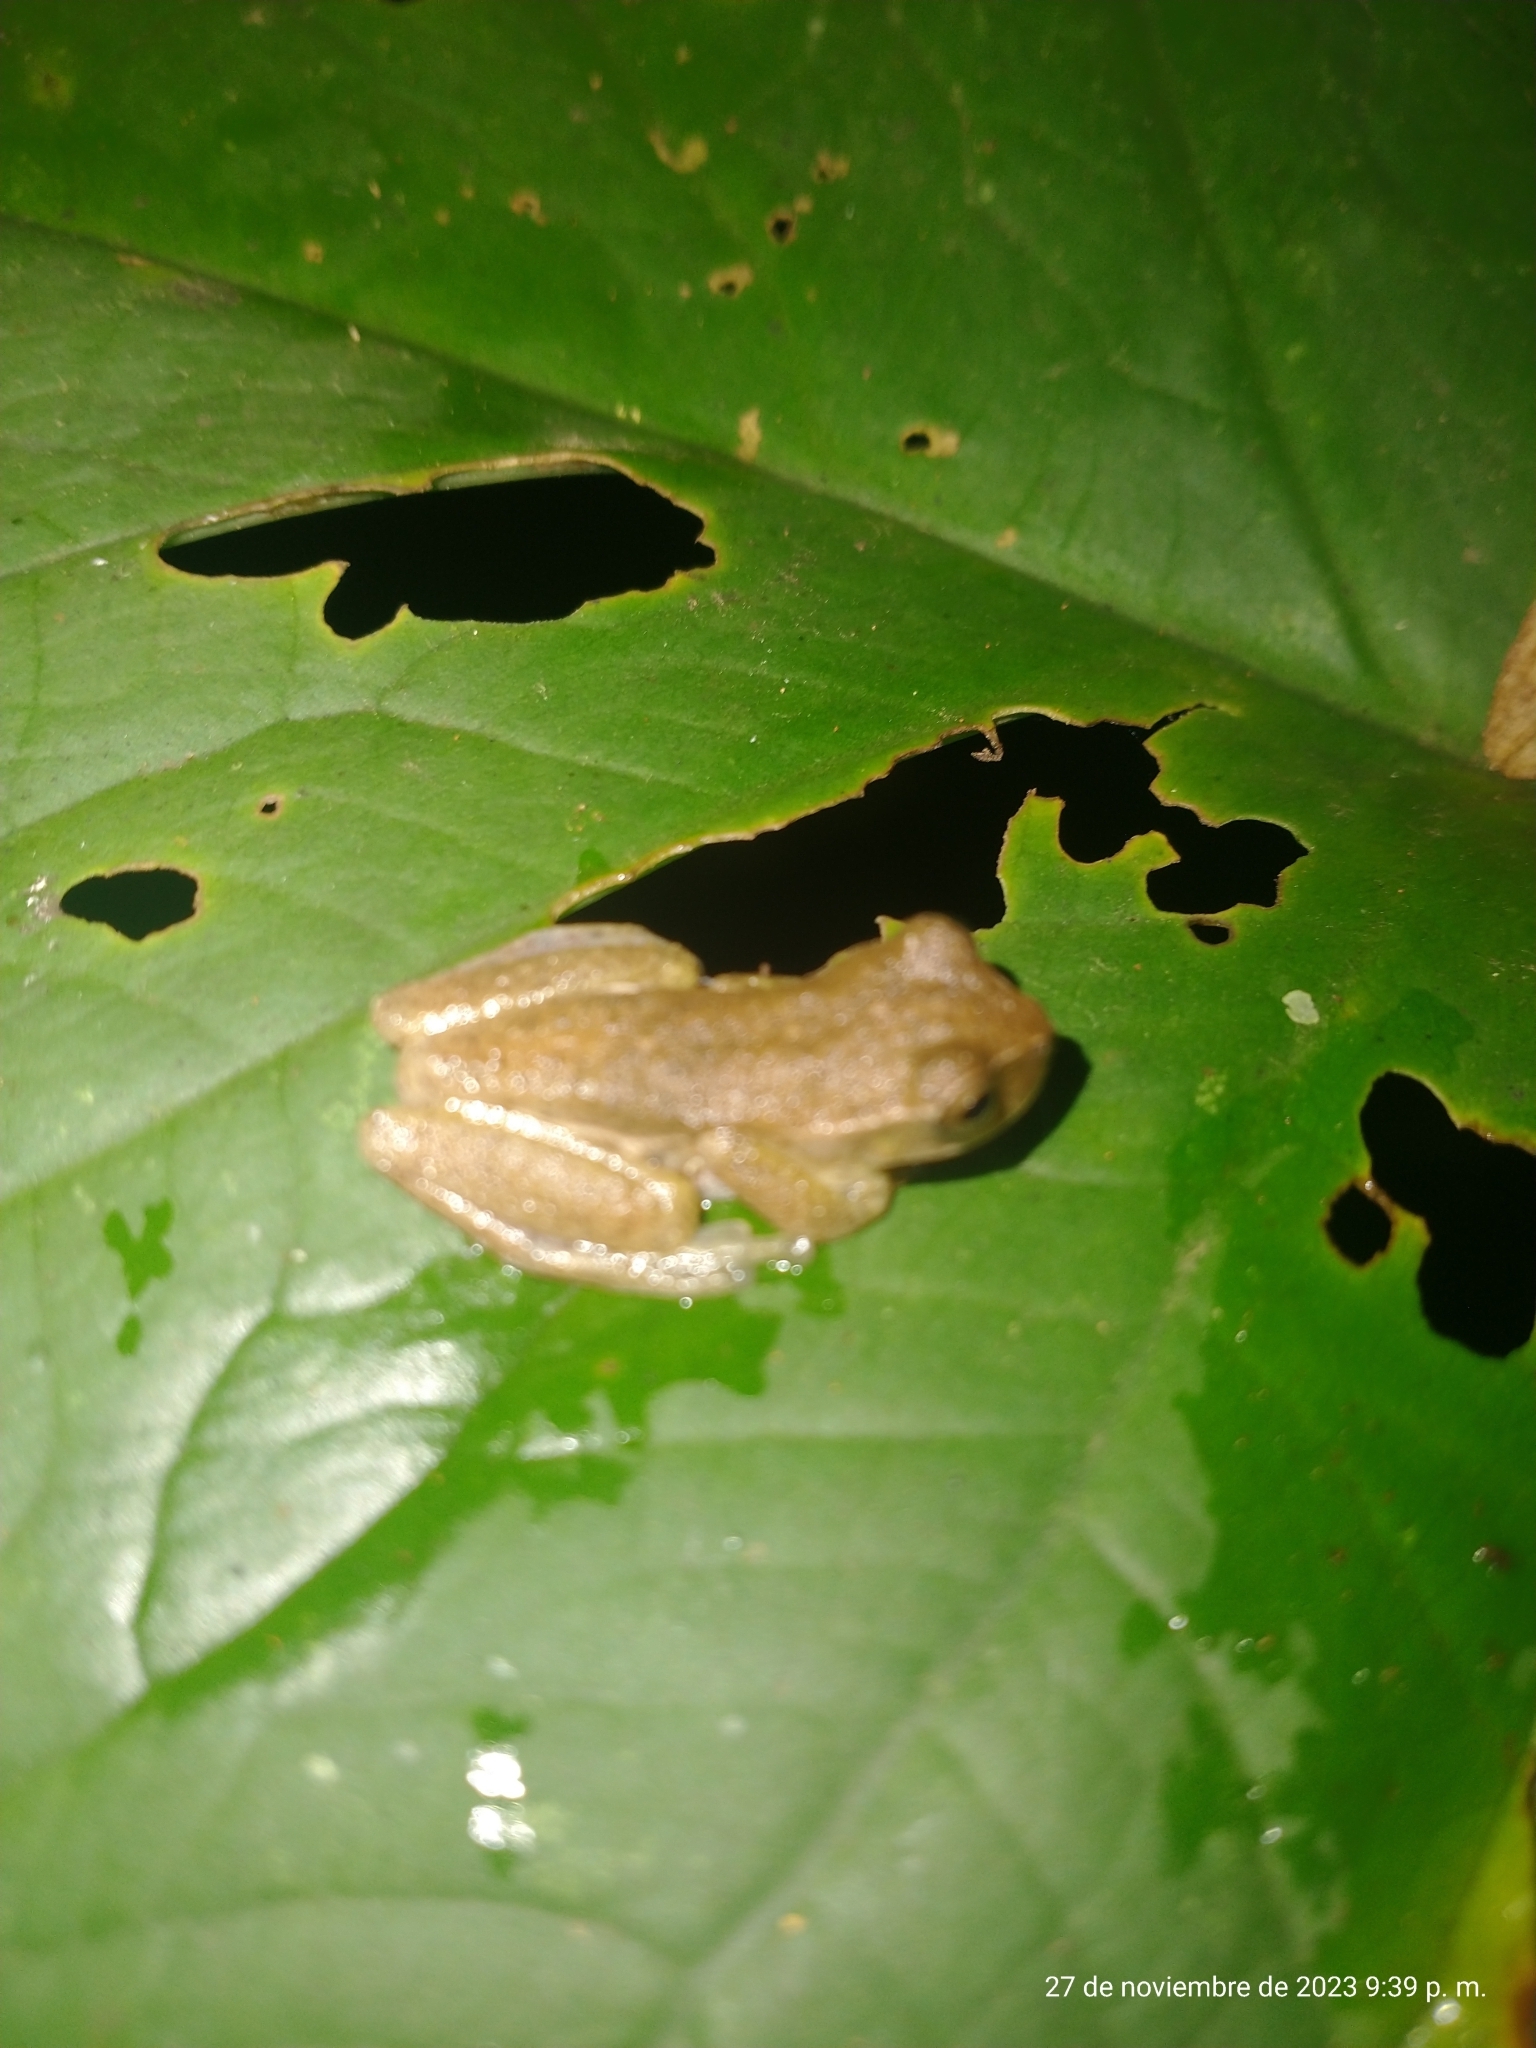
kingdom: Animalia
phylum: Chordata
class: Amphibia
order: Anura
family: Hylidae
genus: Dendropsophus
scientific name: Dendropsophus padreluna
